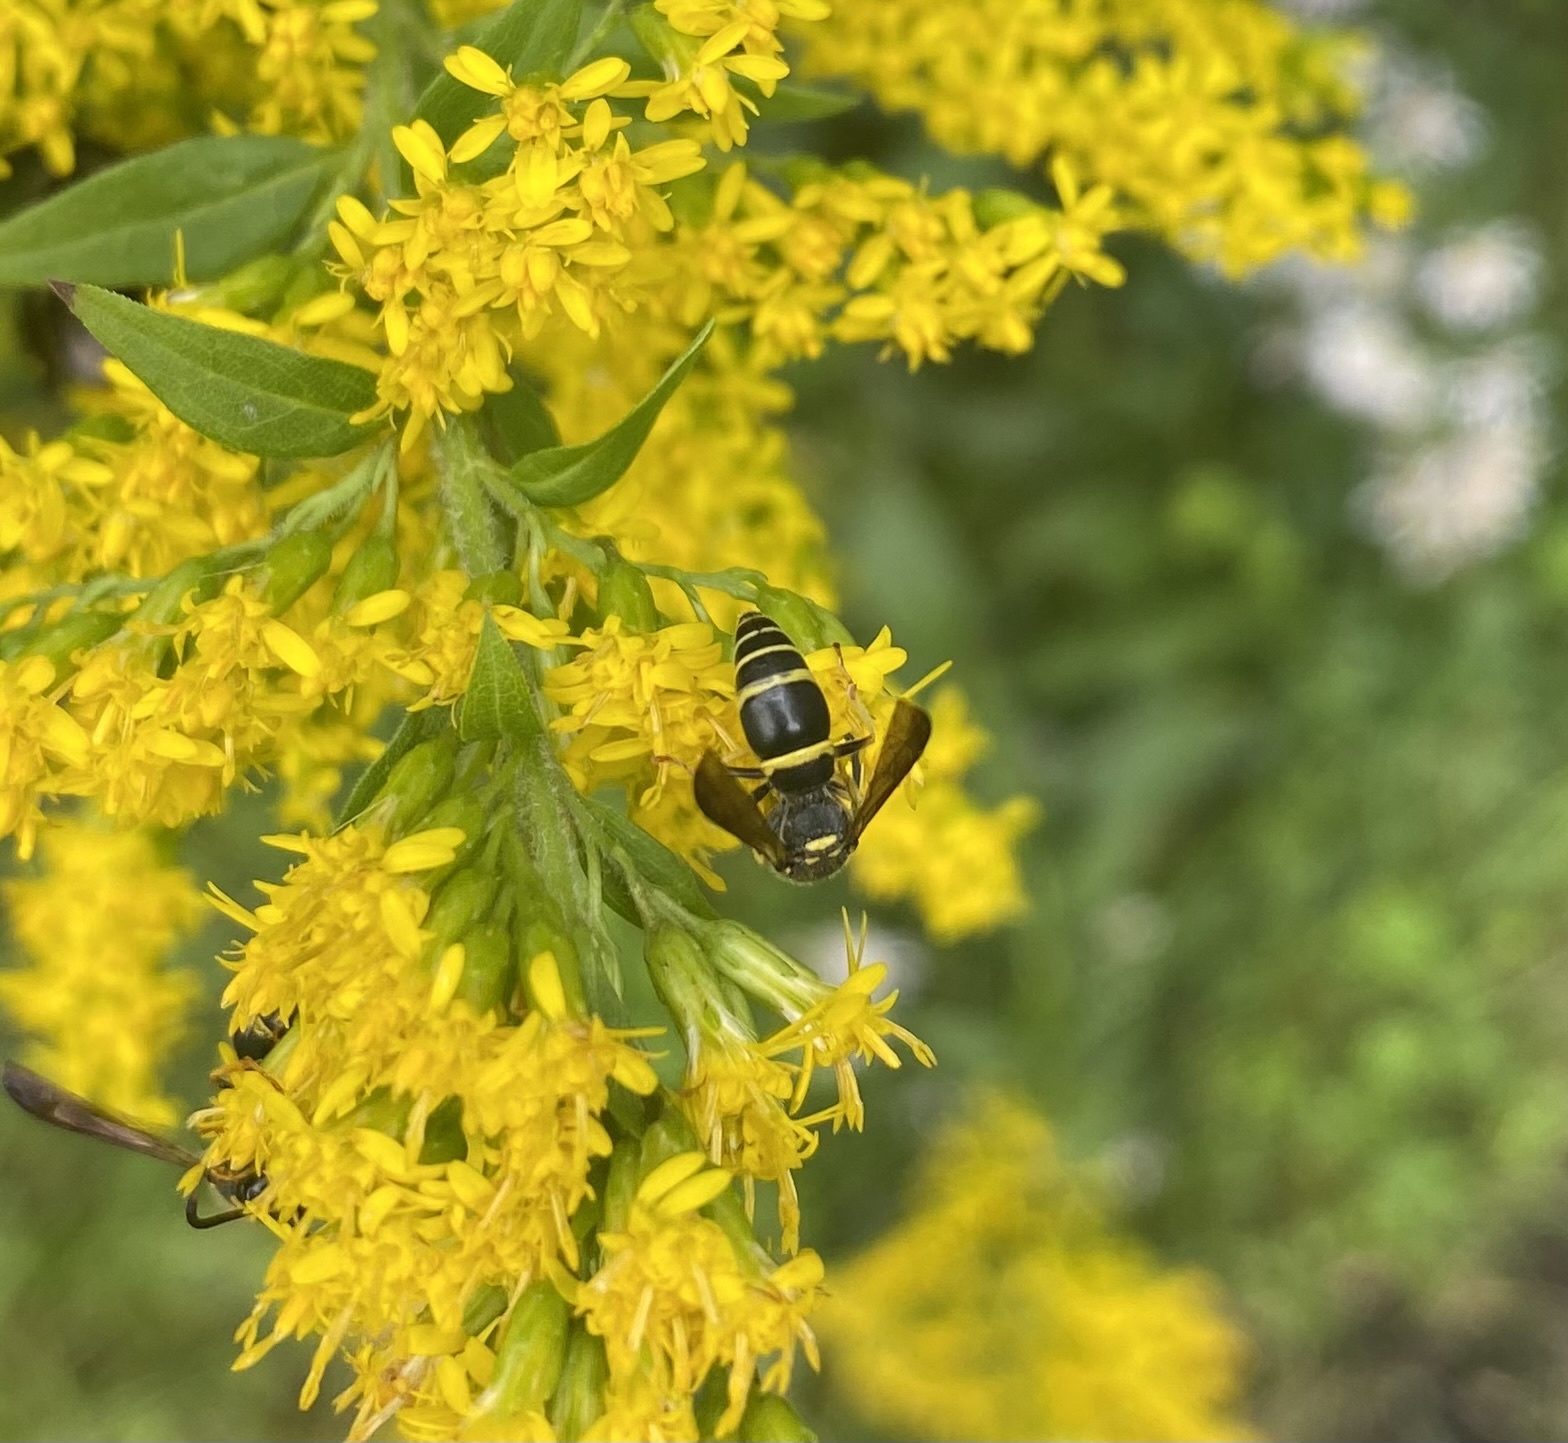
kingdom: Animalia
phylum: Arthropoda
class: Insecta
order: Hymenoptera
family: Vespidae
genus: Ancistrocerus
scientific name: Ancistrocerus adiabatus
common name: Bramble mason wasp
